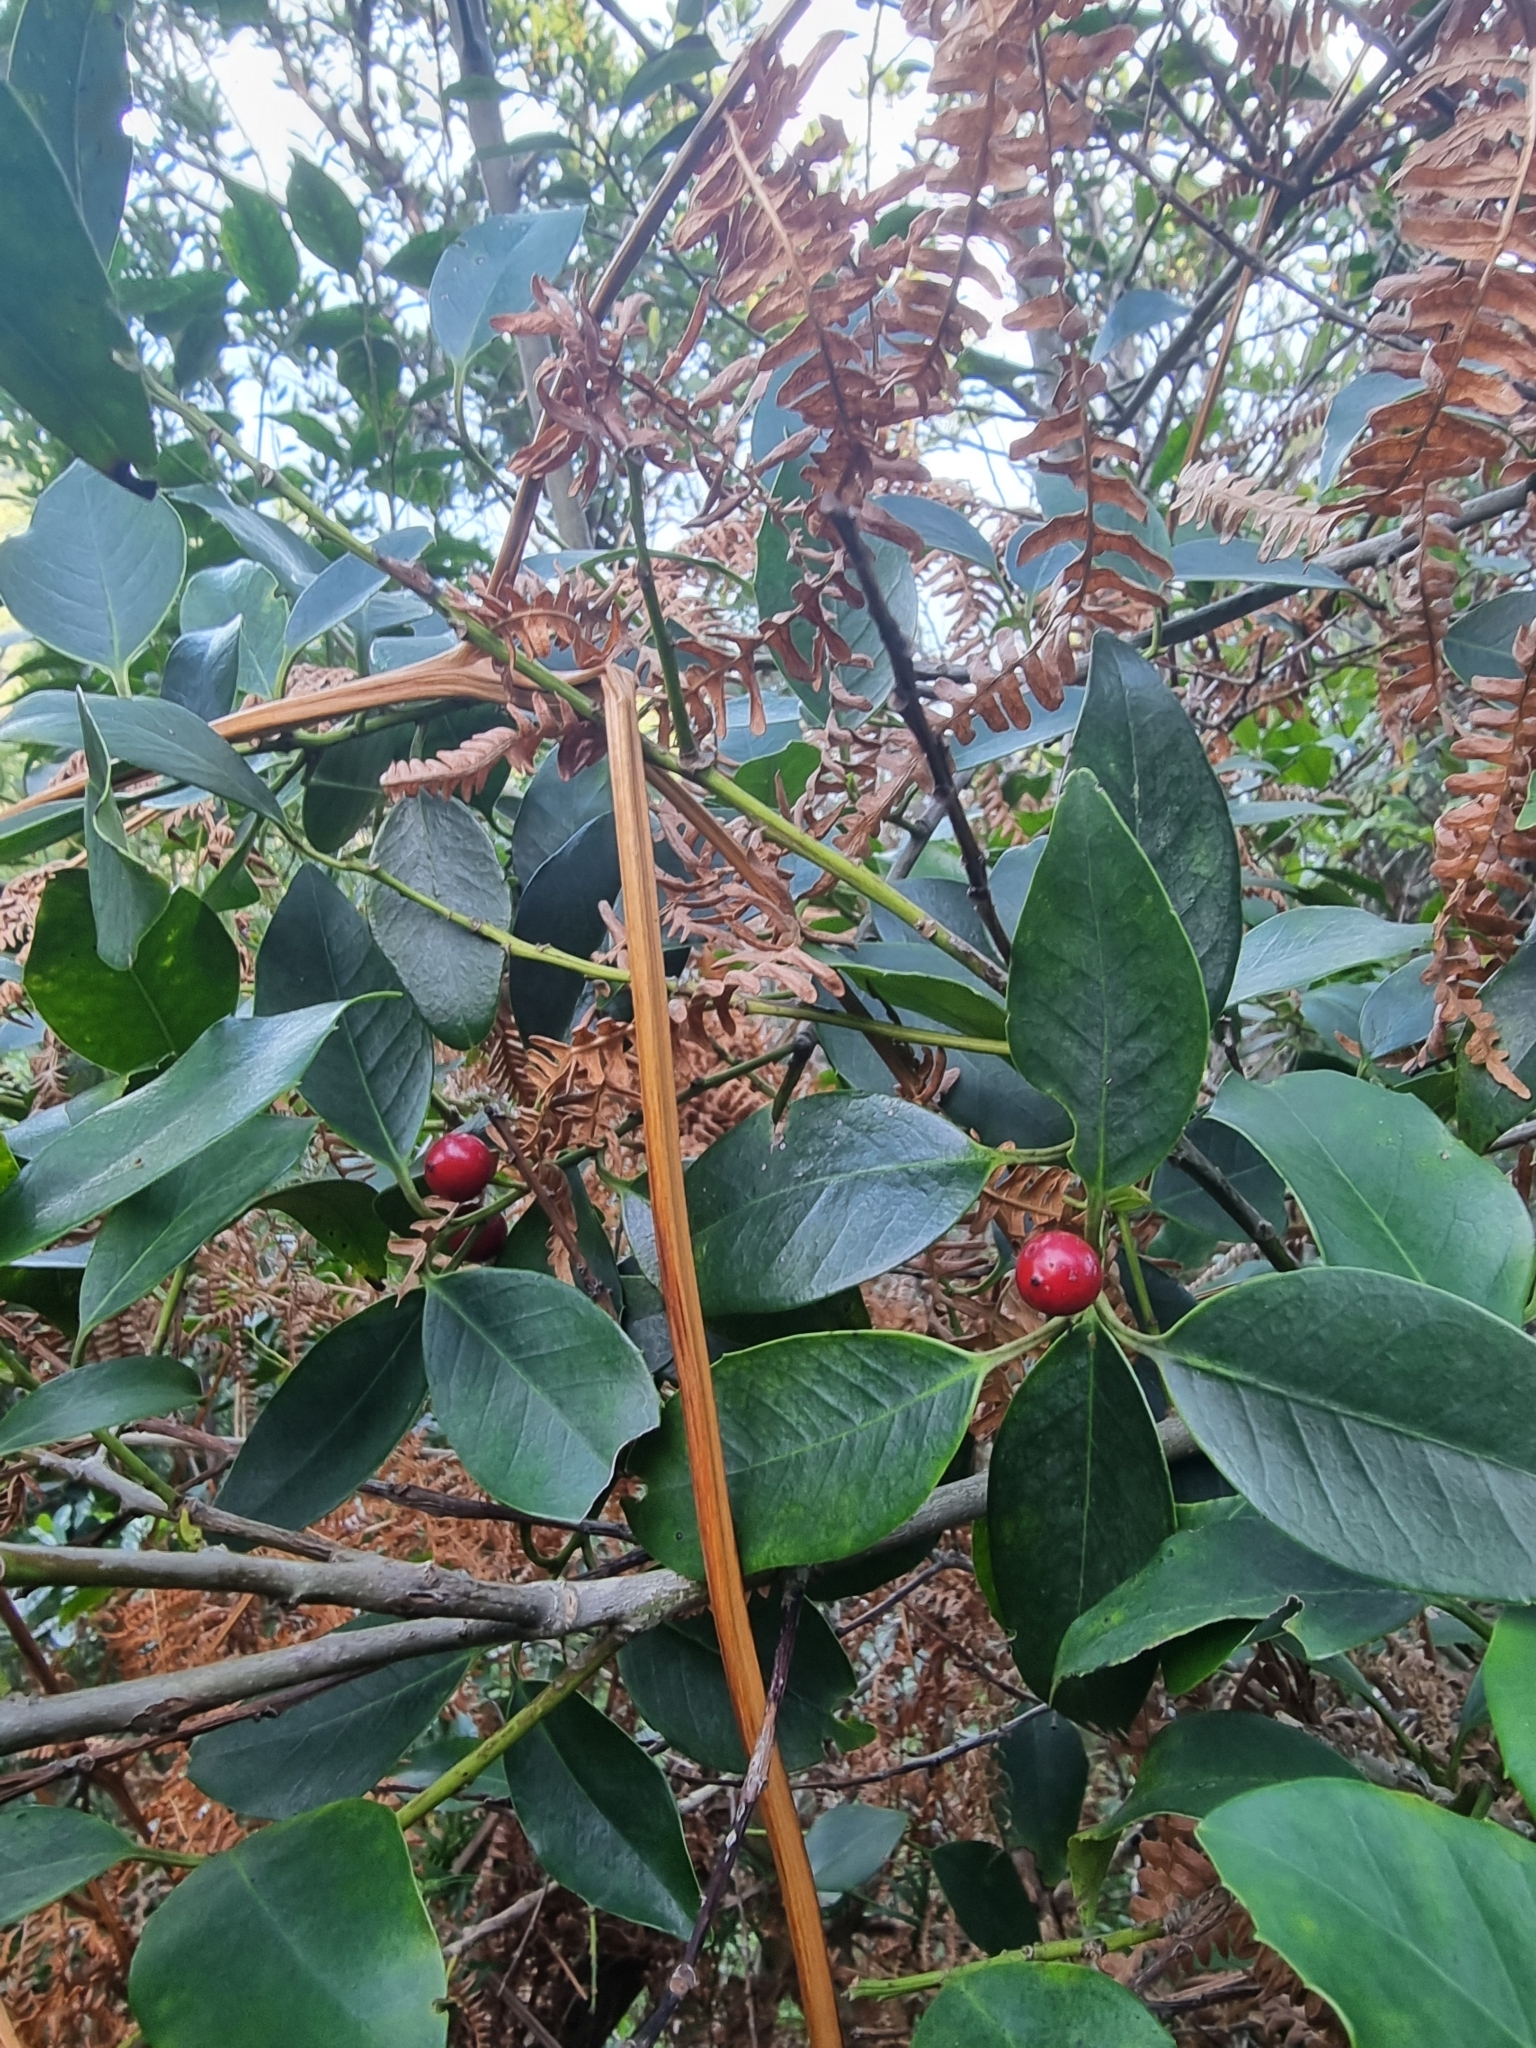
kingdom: Plantae
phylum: Tracheophyta
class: Magnoliopsida
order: Aquifoliales
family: Aquifoliaceae
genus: Ilex
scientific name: Ilex canariensis
